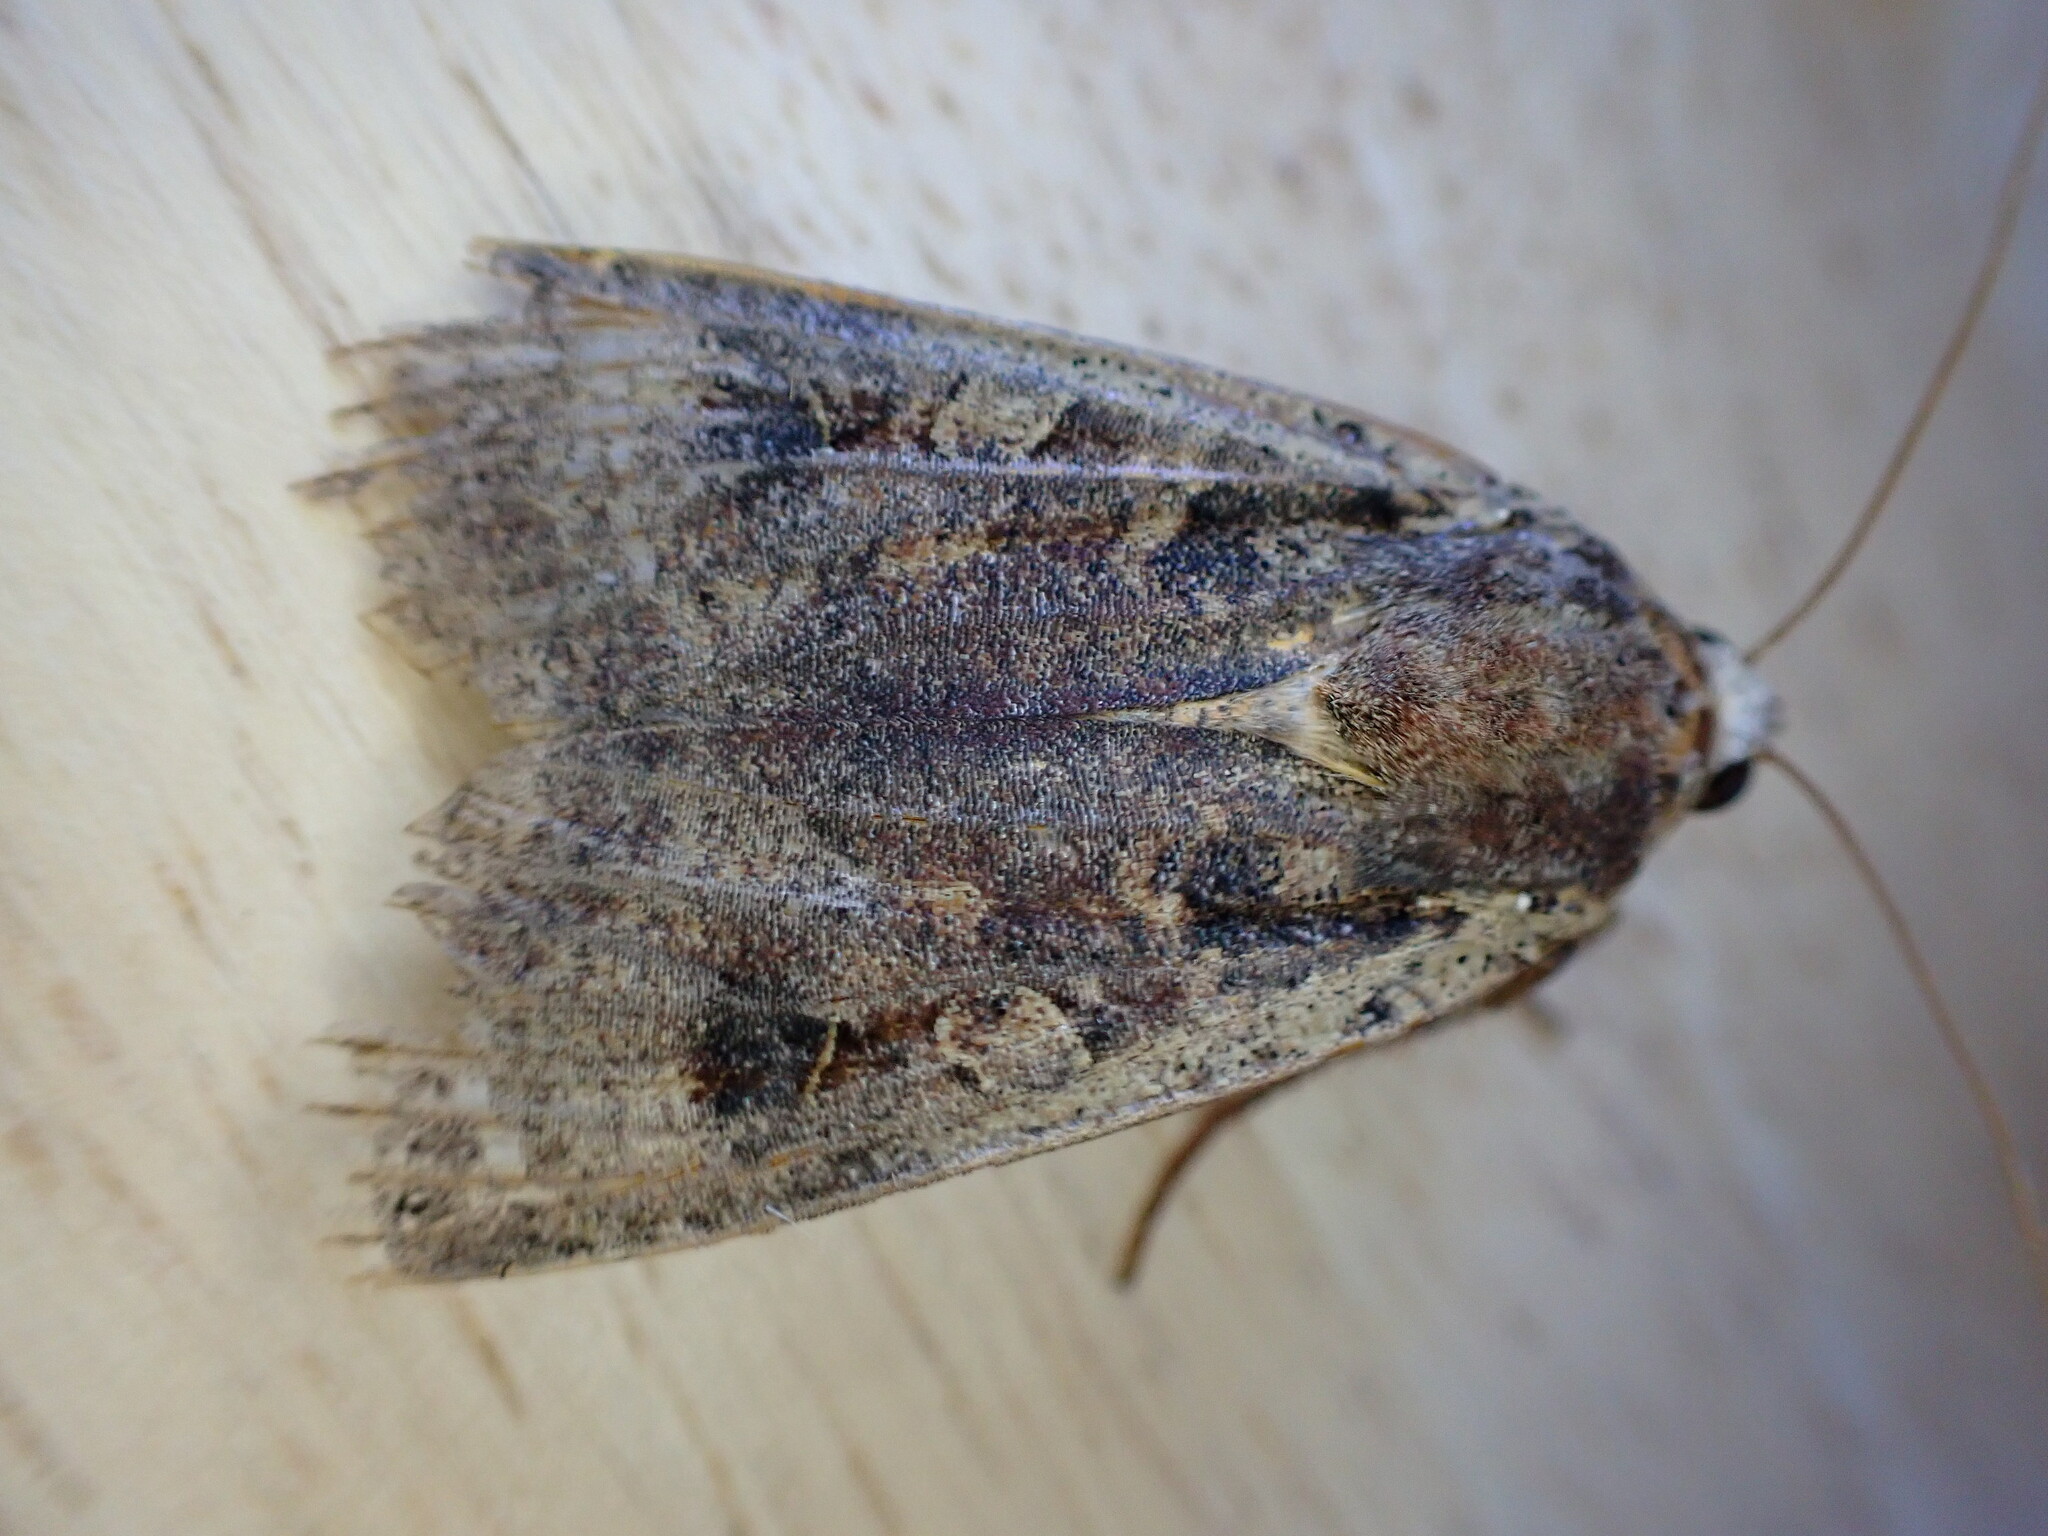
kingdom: Animalia
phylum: Arthropoda
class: Insecta
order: Lepidoptera
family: Noctuidae
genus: Noctua
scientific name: Noctua pronuba
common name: Large yellow underwing
